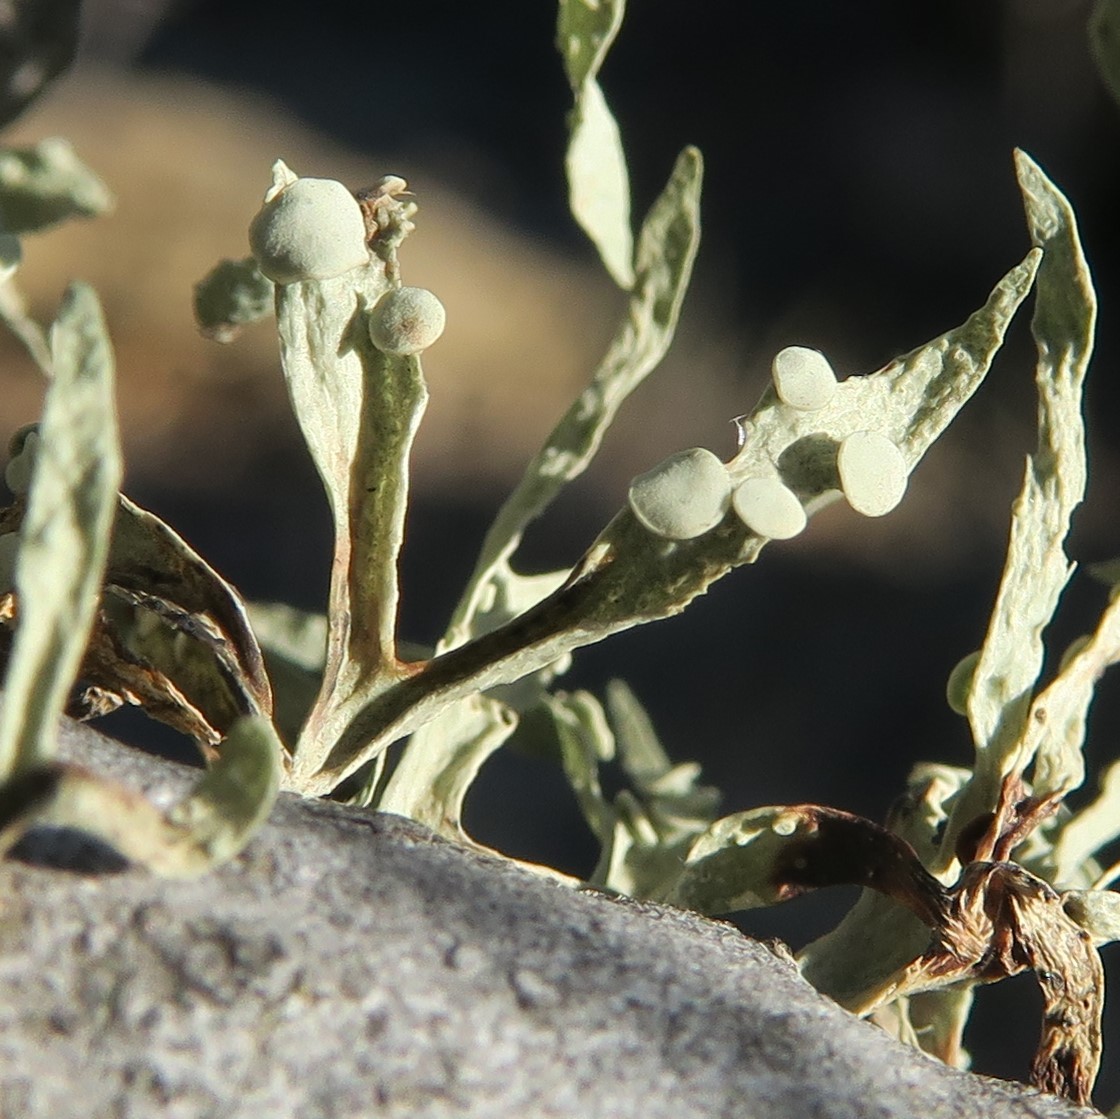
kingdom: Fungi
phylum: Ascomycota
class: Lecanoromycetes
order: Lecanorales
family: Ramalinaceae
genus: Ramalina
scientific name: Ramalina celastri
